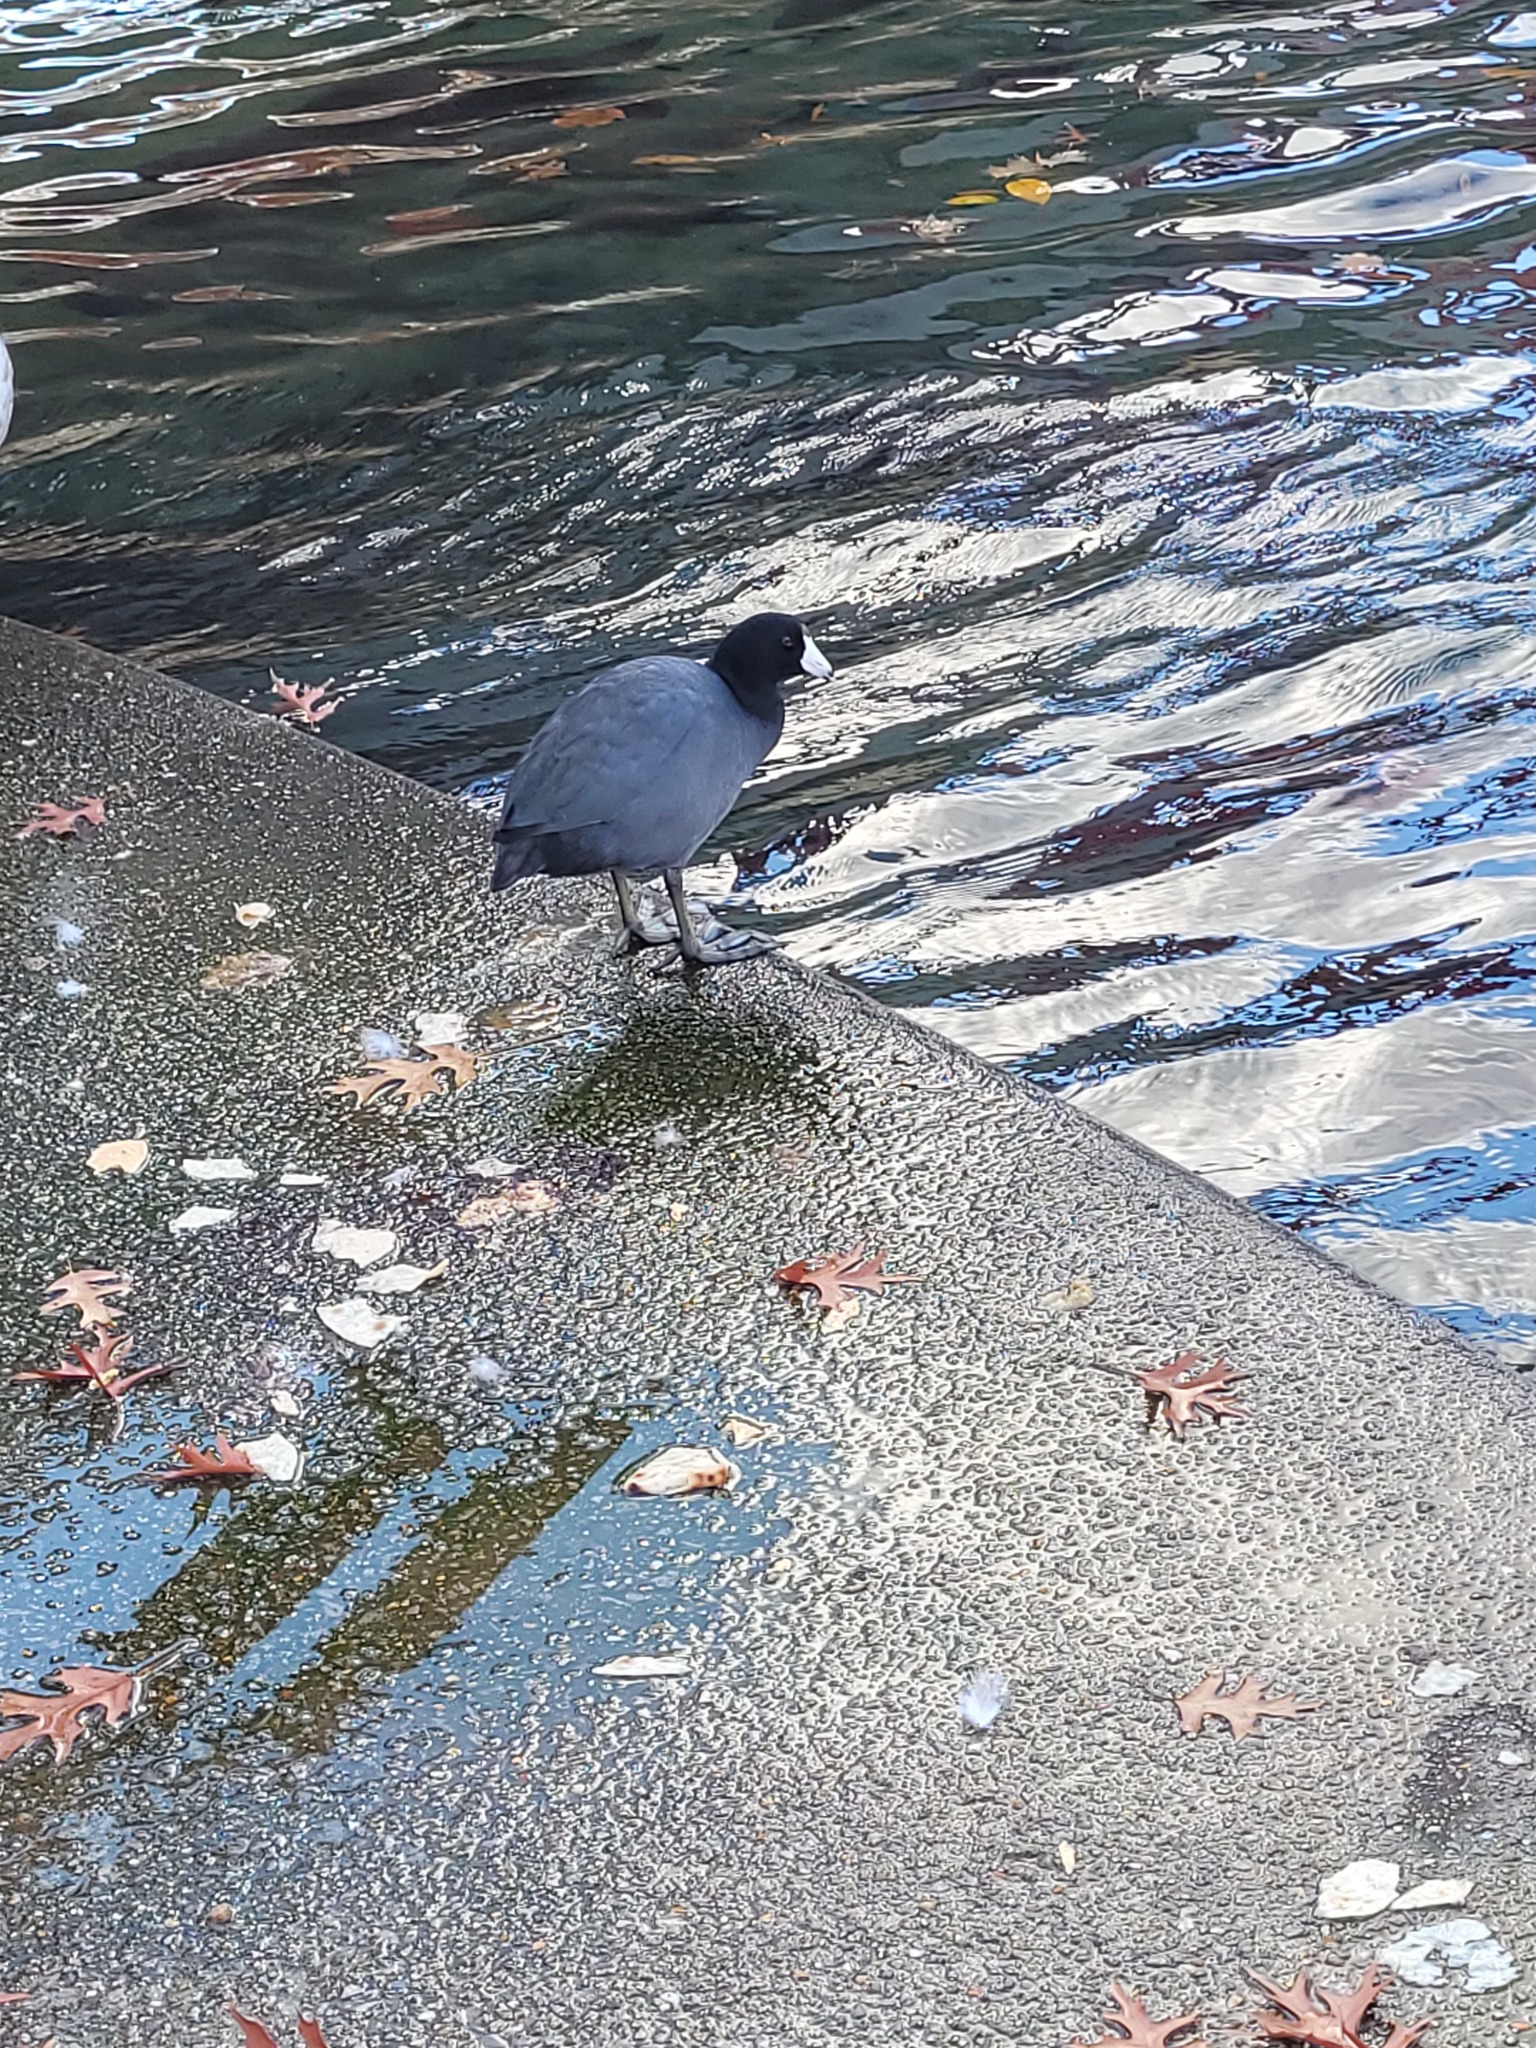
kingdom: Animalia
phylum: Chordata
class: Aves
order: Gruiformes
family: Rallidae
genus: Fulica
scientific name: Fulica americana
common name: American coot
